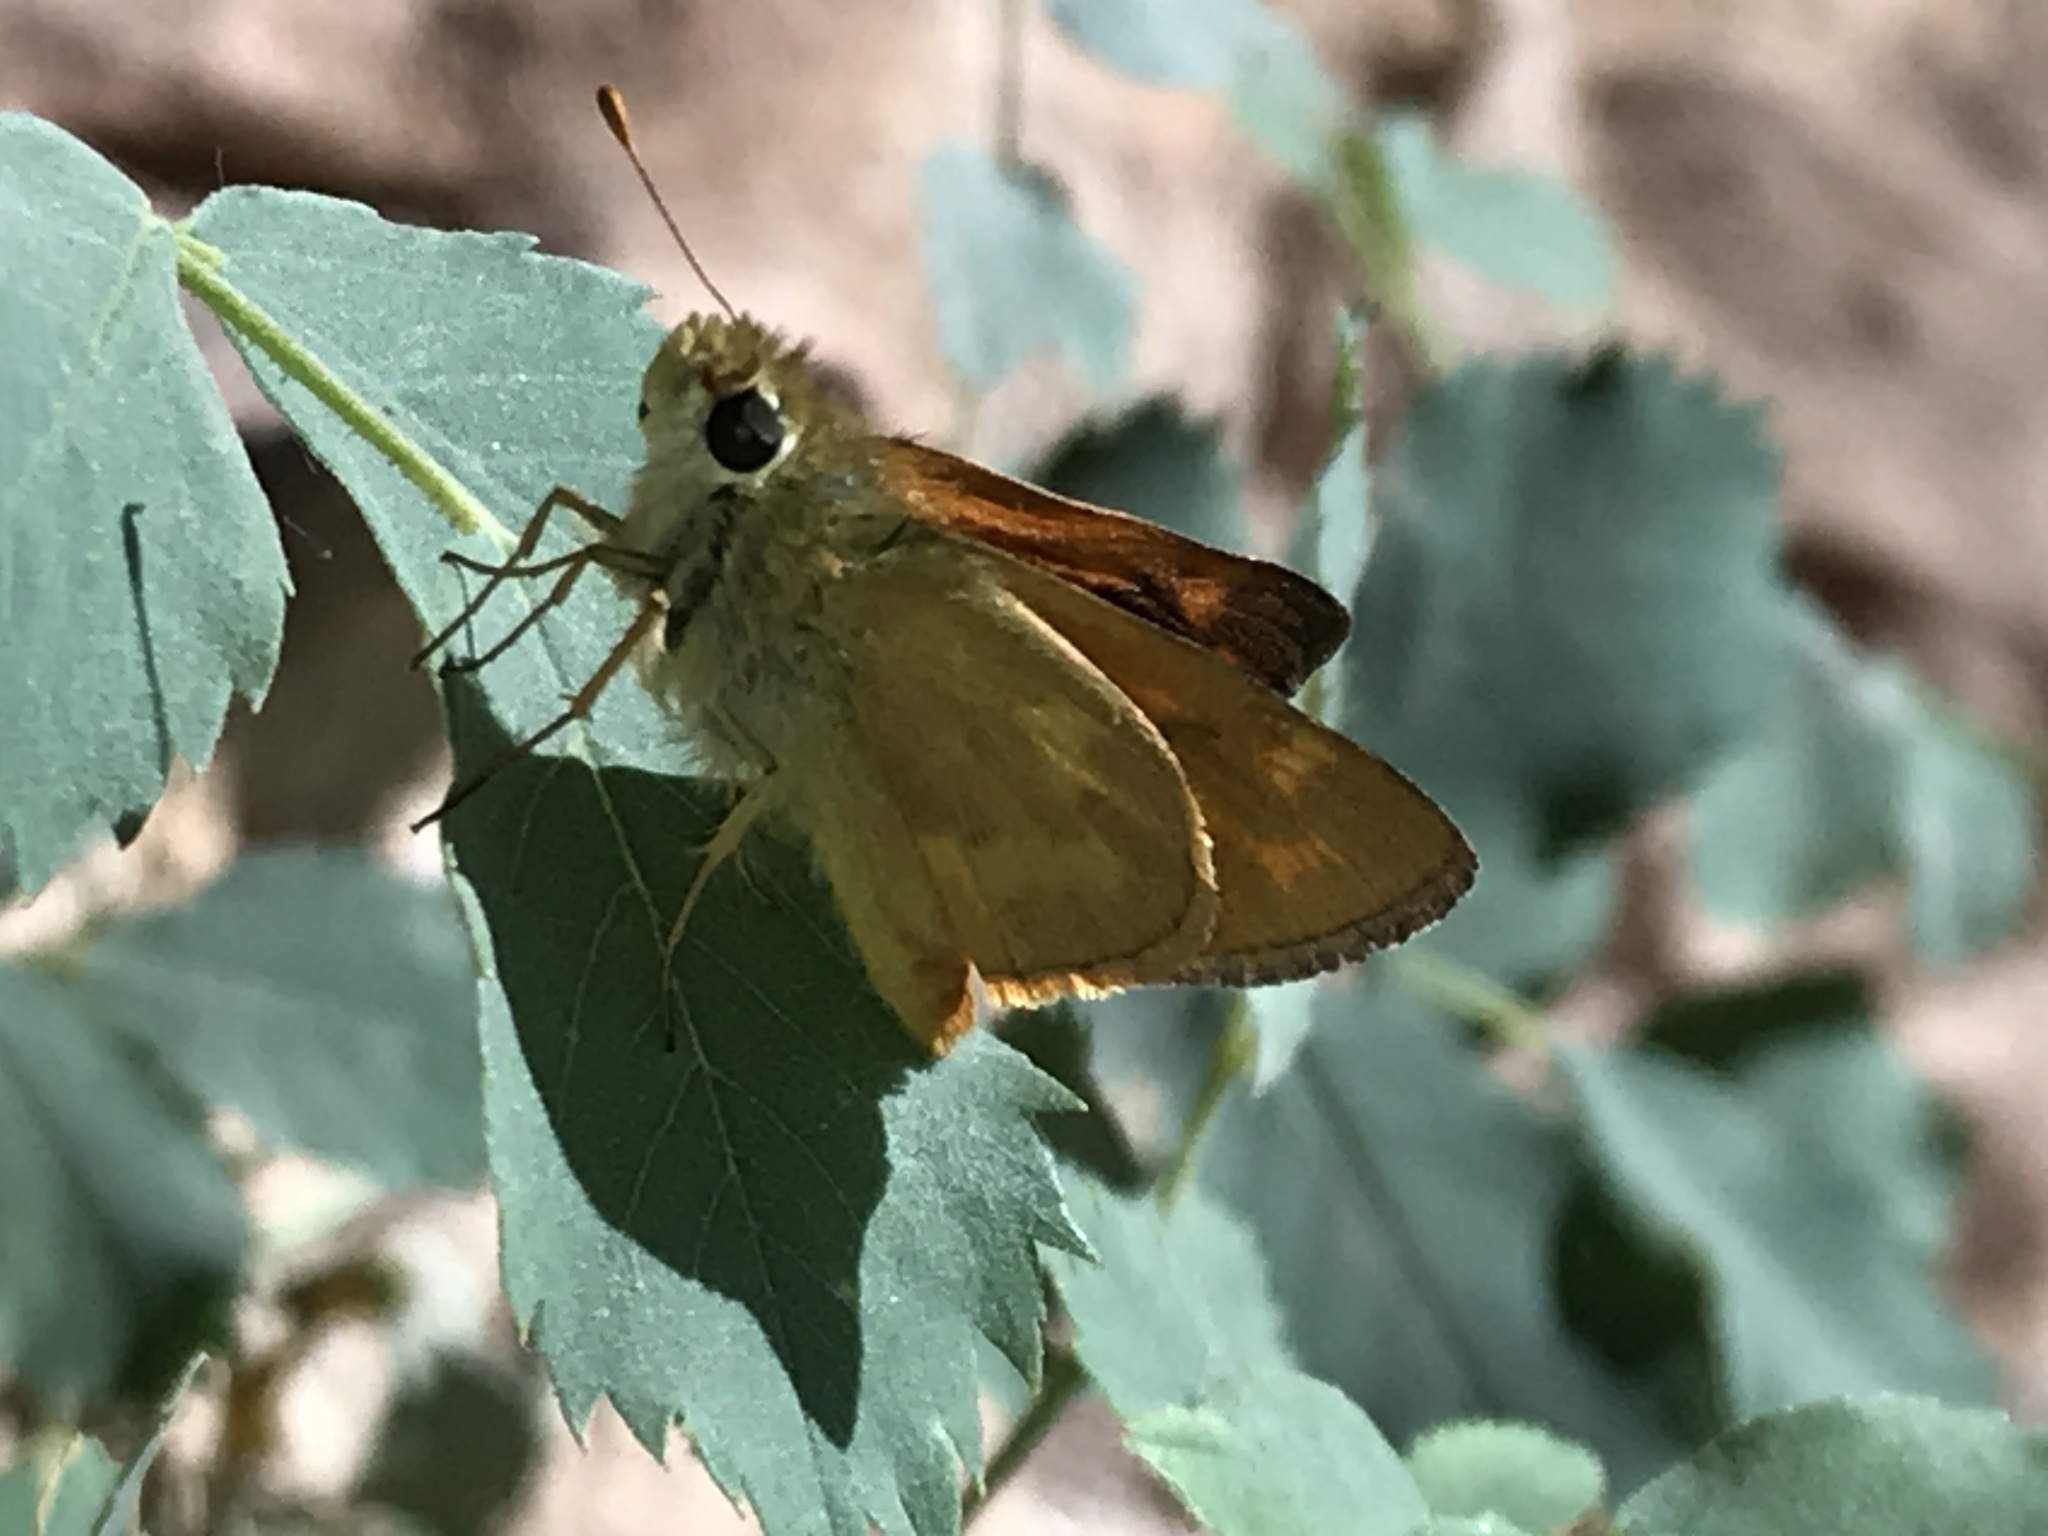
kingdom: Animalia
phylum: Arthropoda
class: Insecta
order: Lepidoptera
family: Hesperiidae
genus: Ochlodes
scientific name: Ochlodes sylvanoides
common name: Woodland skipper
